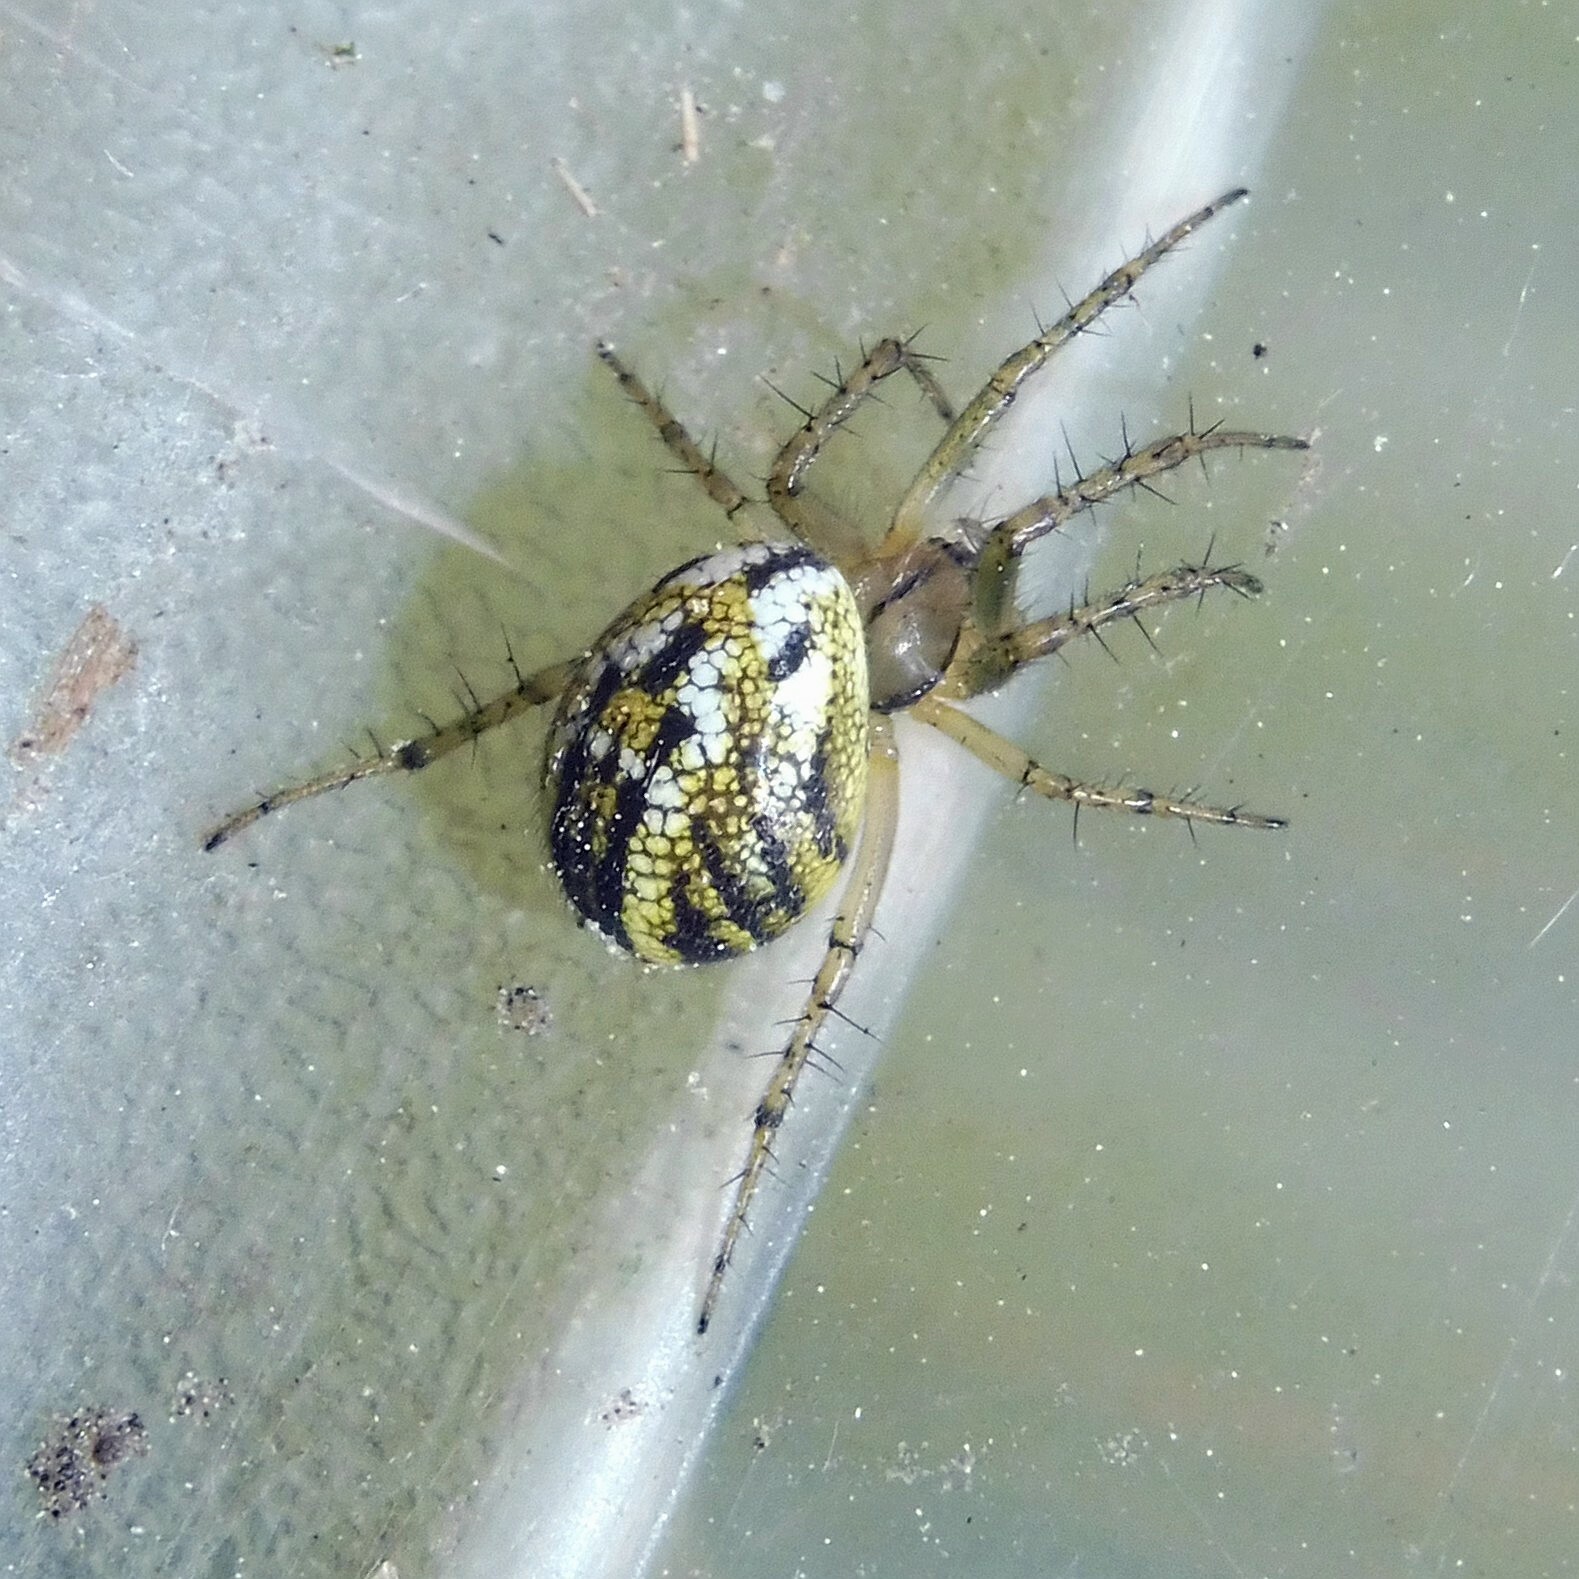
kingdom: Animalia
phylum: Arthropoda
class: Arachnida
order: Araneae
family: Araneidae
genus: Mangora
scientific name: Mangora acalypha
